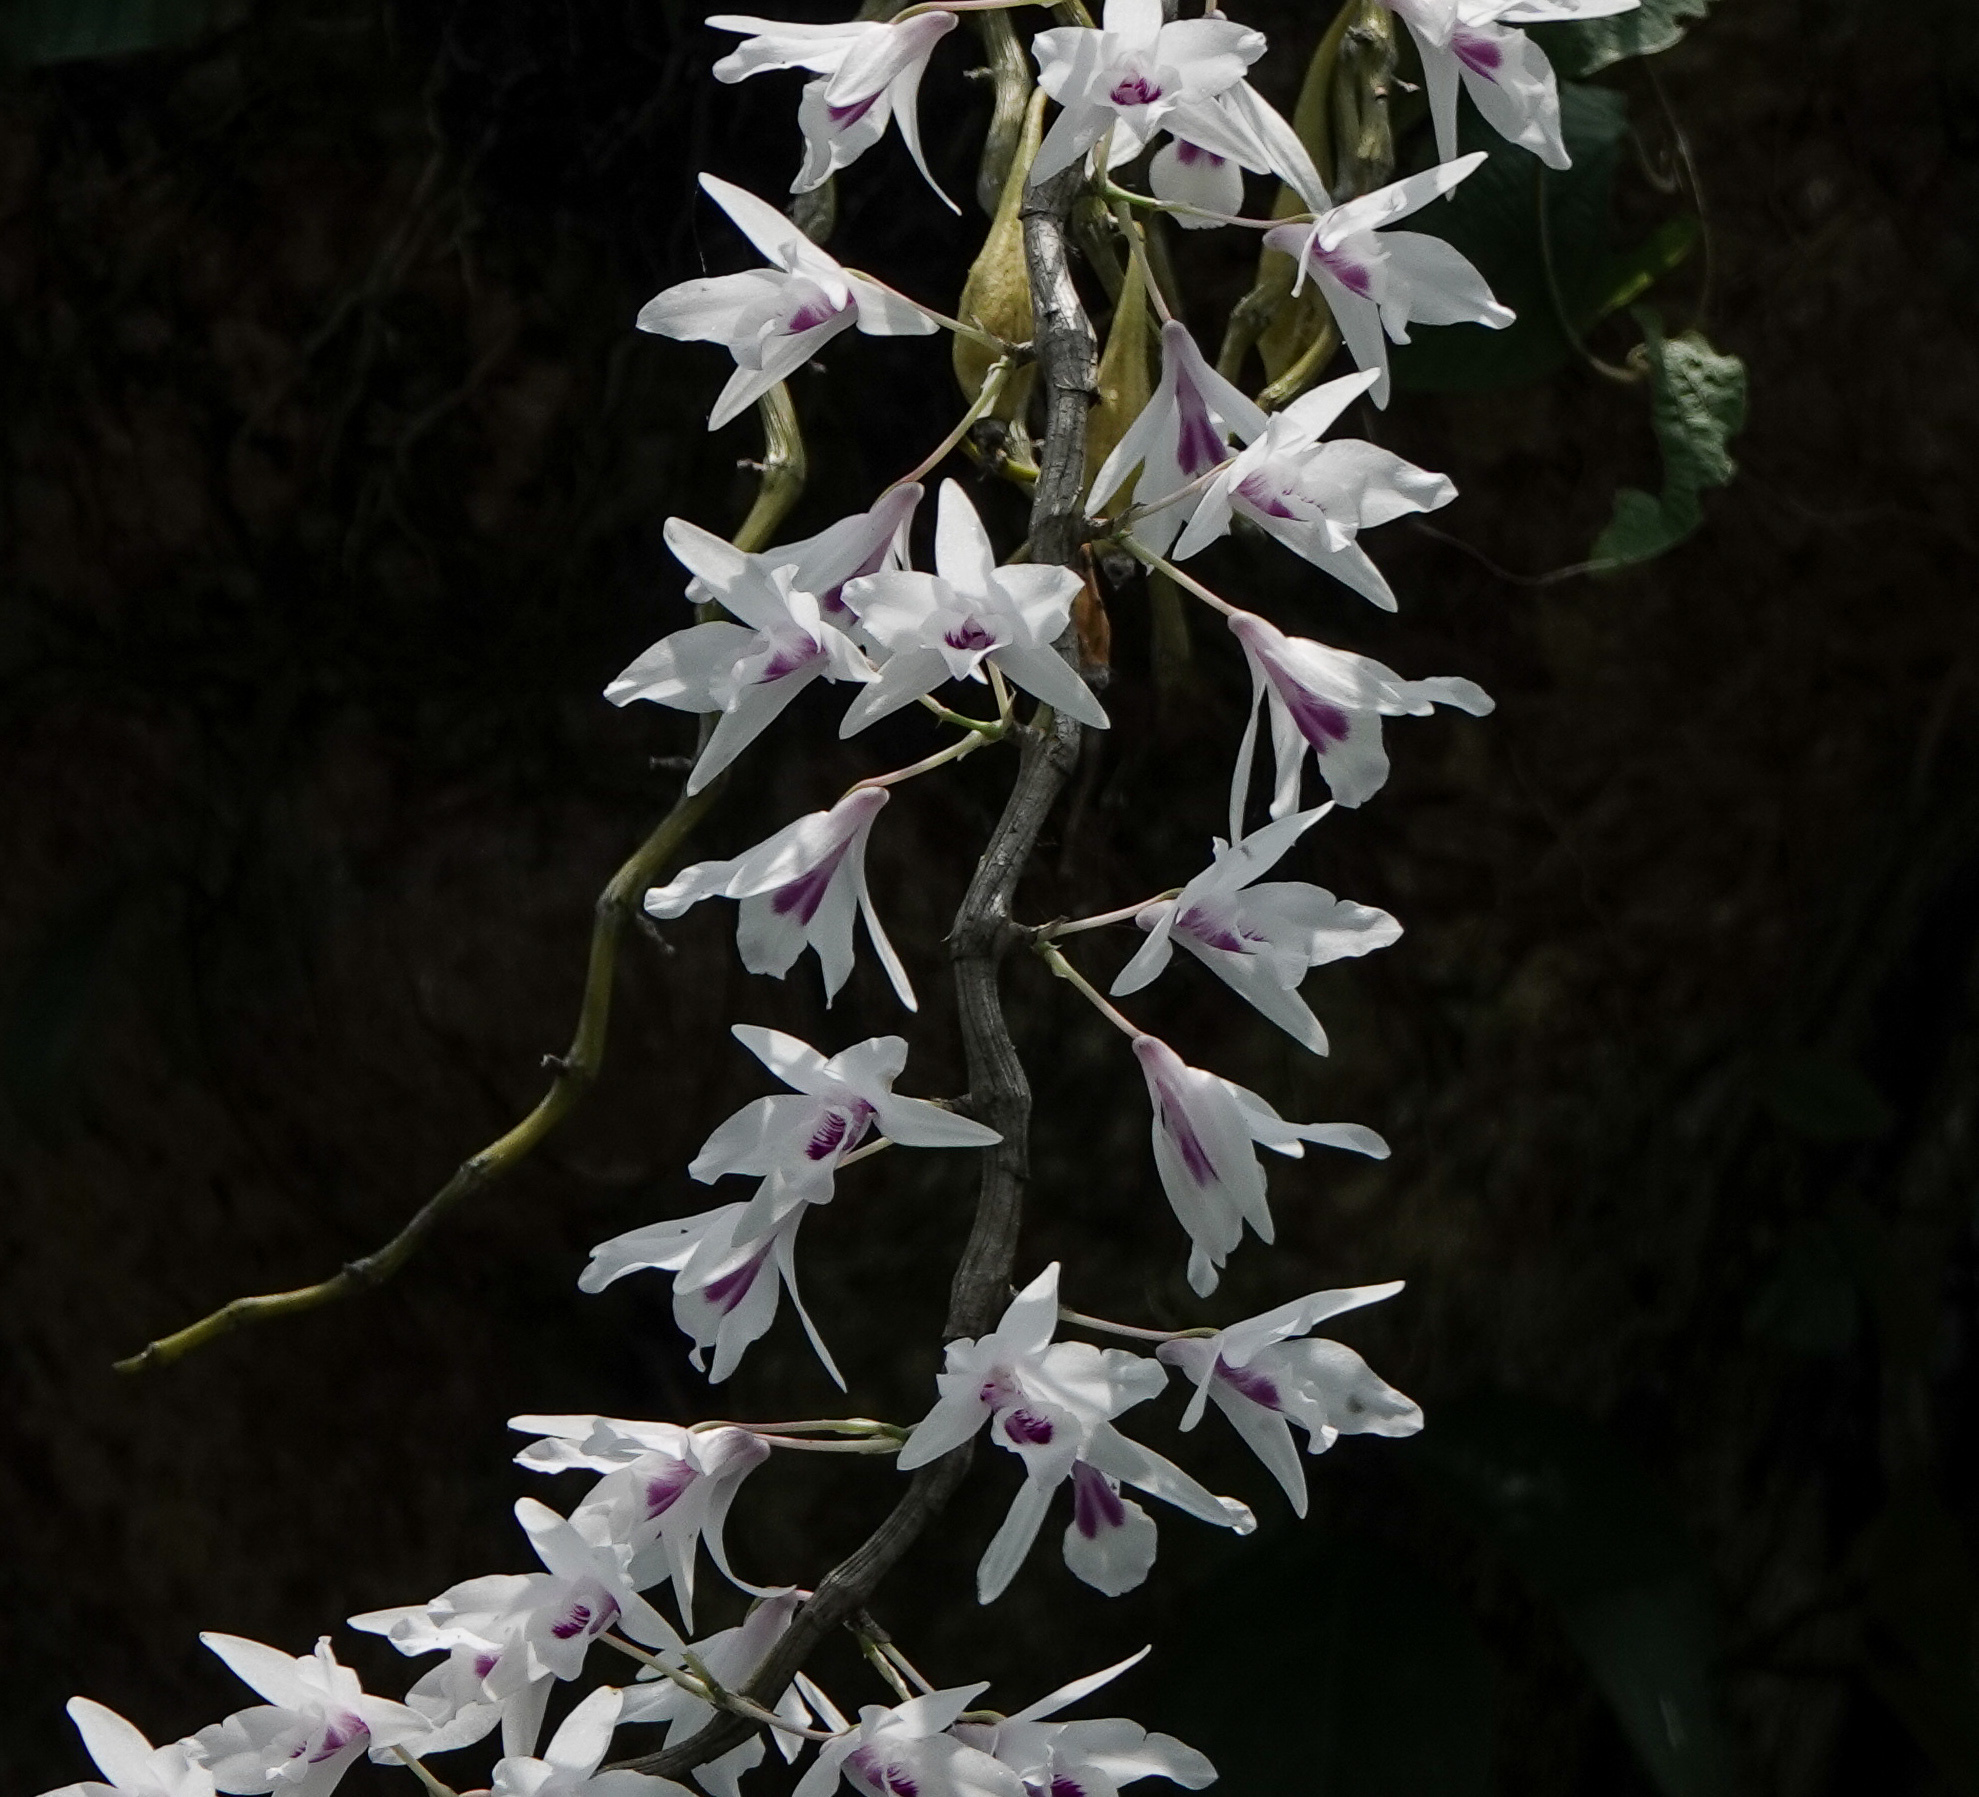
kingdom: Plantae
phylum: Tracheophyta
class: Liliopsida
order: Asparagales
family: Orchidaceae
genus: Dendrobium
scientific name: Dendrobium transparens
